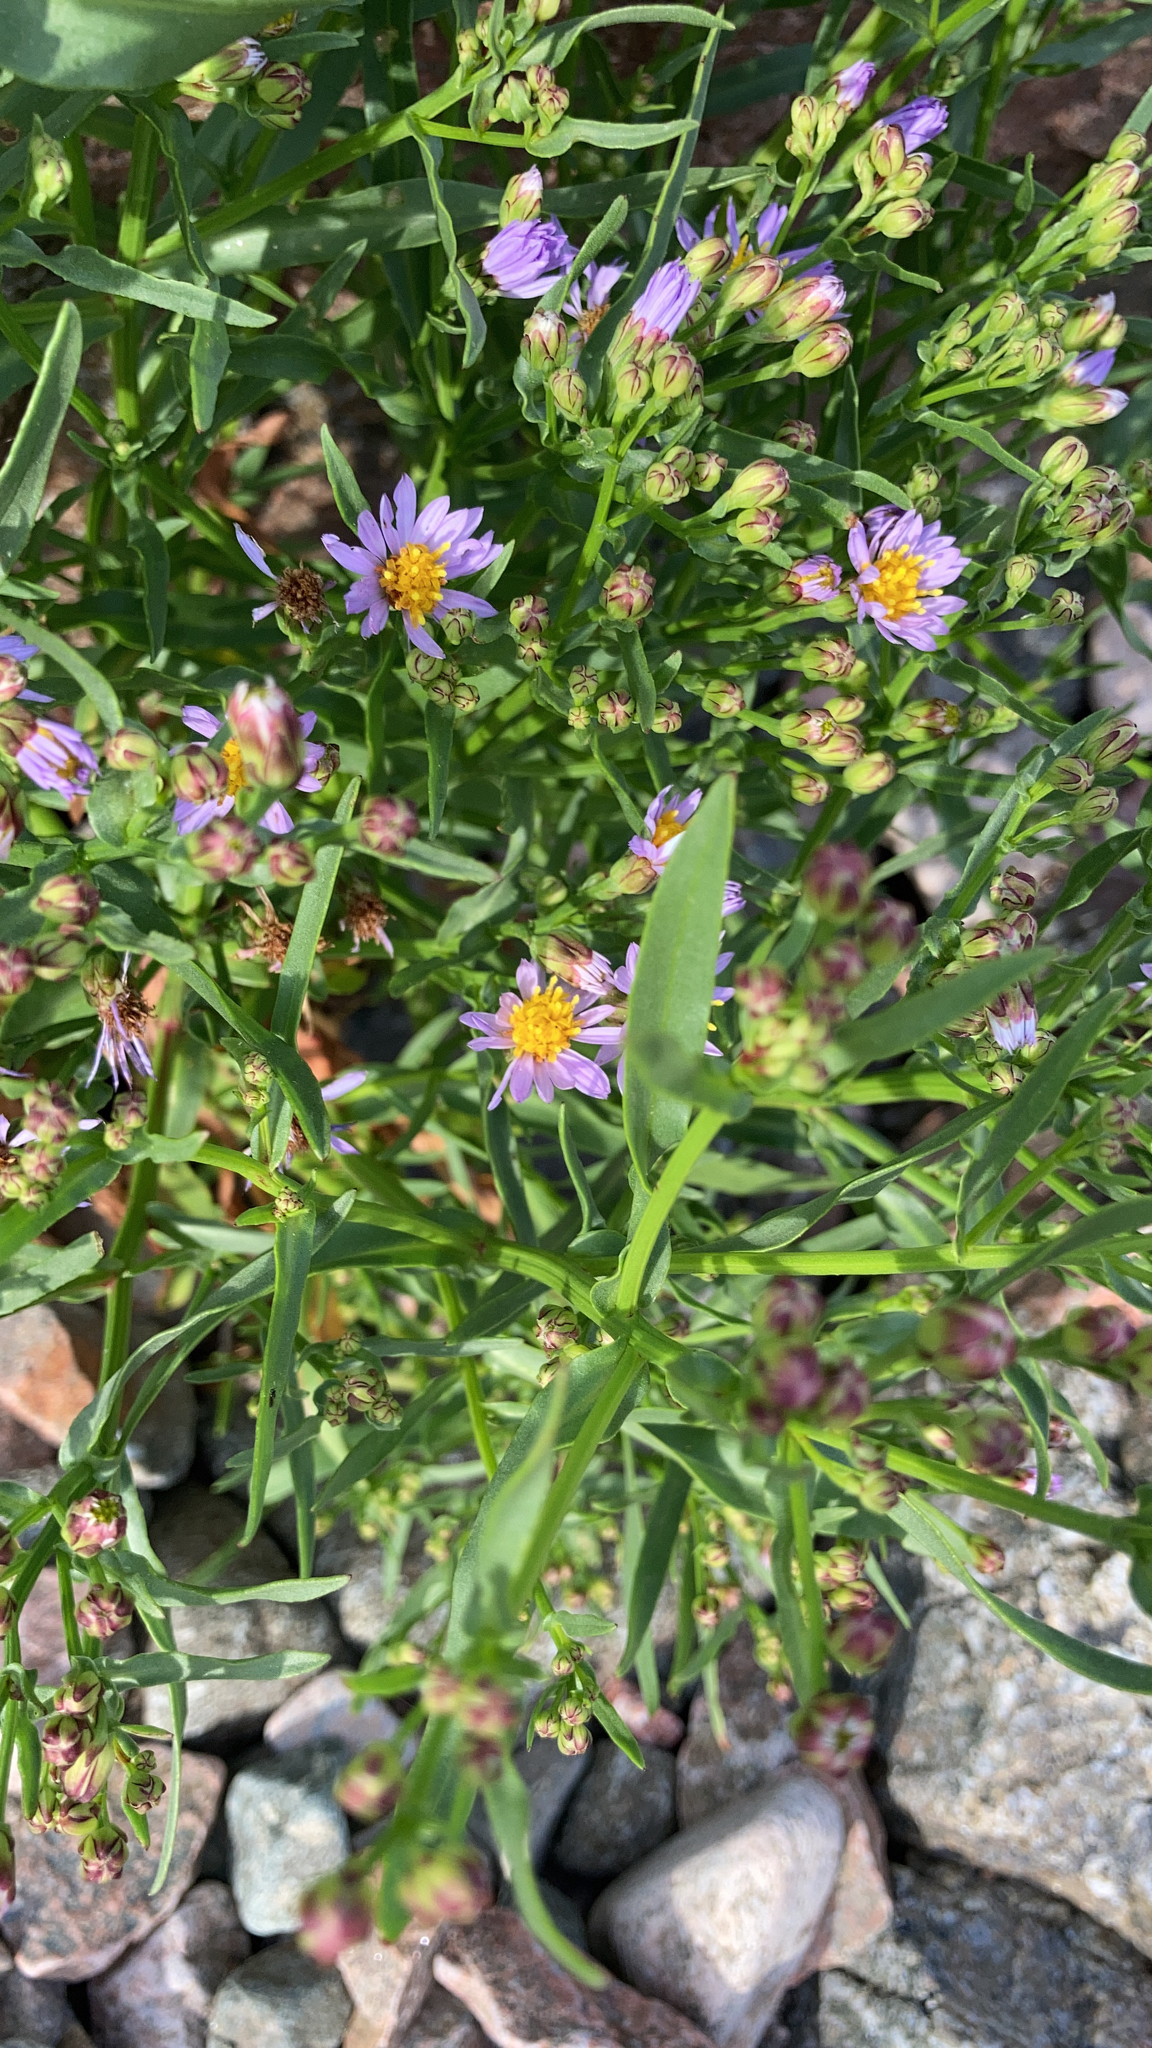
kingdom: Plantae
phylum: Tracheophyta
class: Magnoliopsida
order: Asterales
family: Asteraceae
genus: Tripolium
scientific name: Tripolium pannonicum
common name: Sea aster
